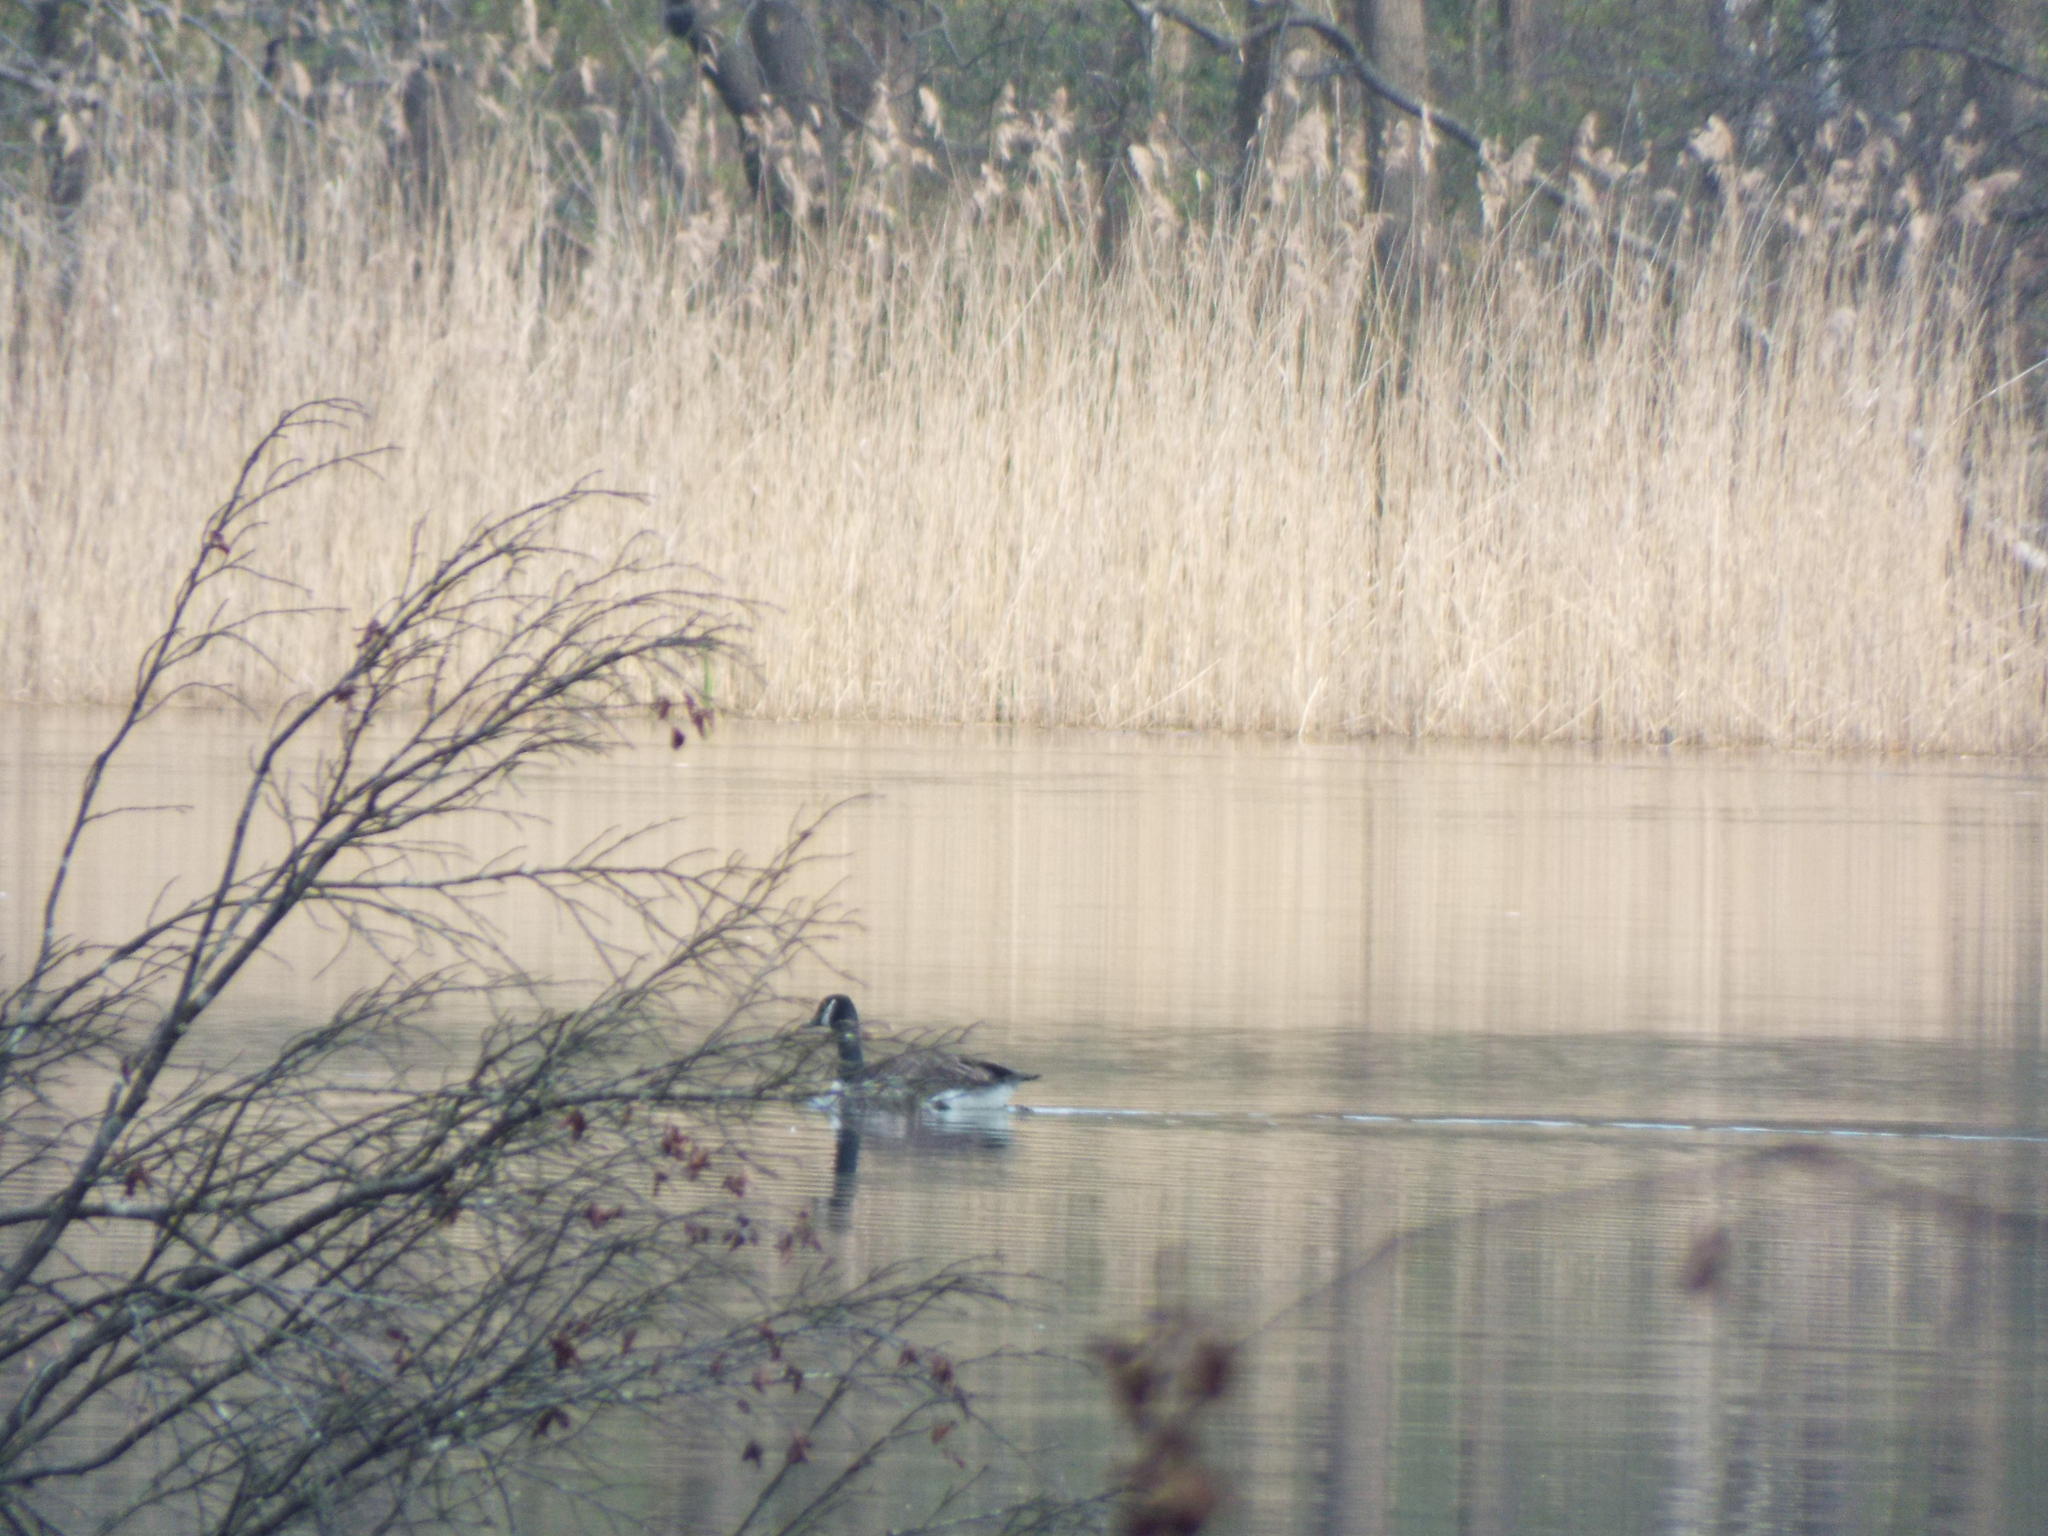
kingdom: Animalia
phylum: Chordata
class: Aves
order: Anseriformes
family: Anatidae
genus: Branta
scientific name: Branta canadensis
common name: Canada goose
